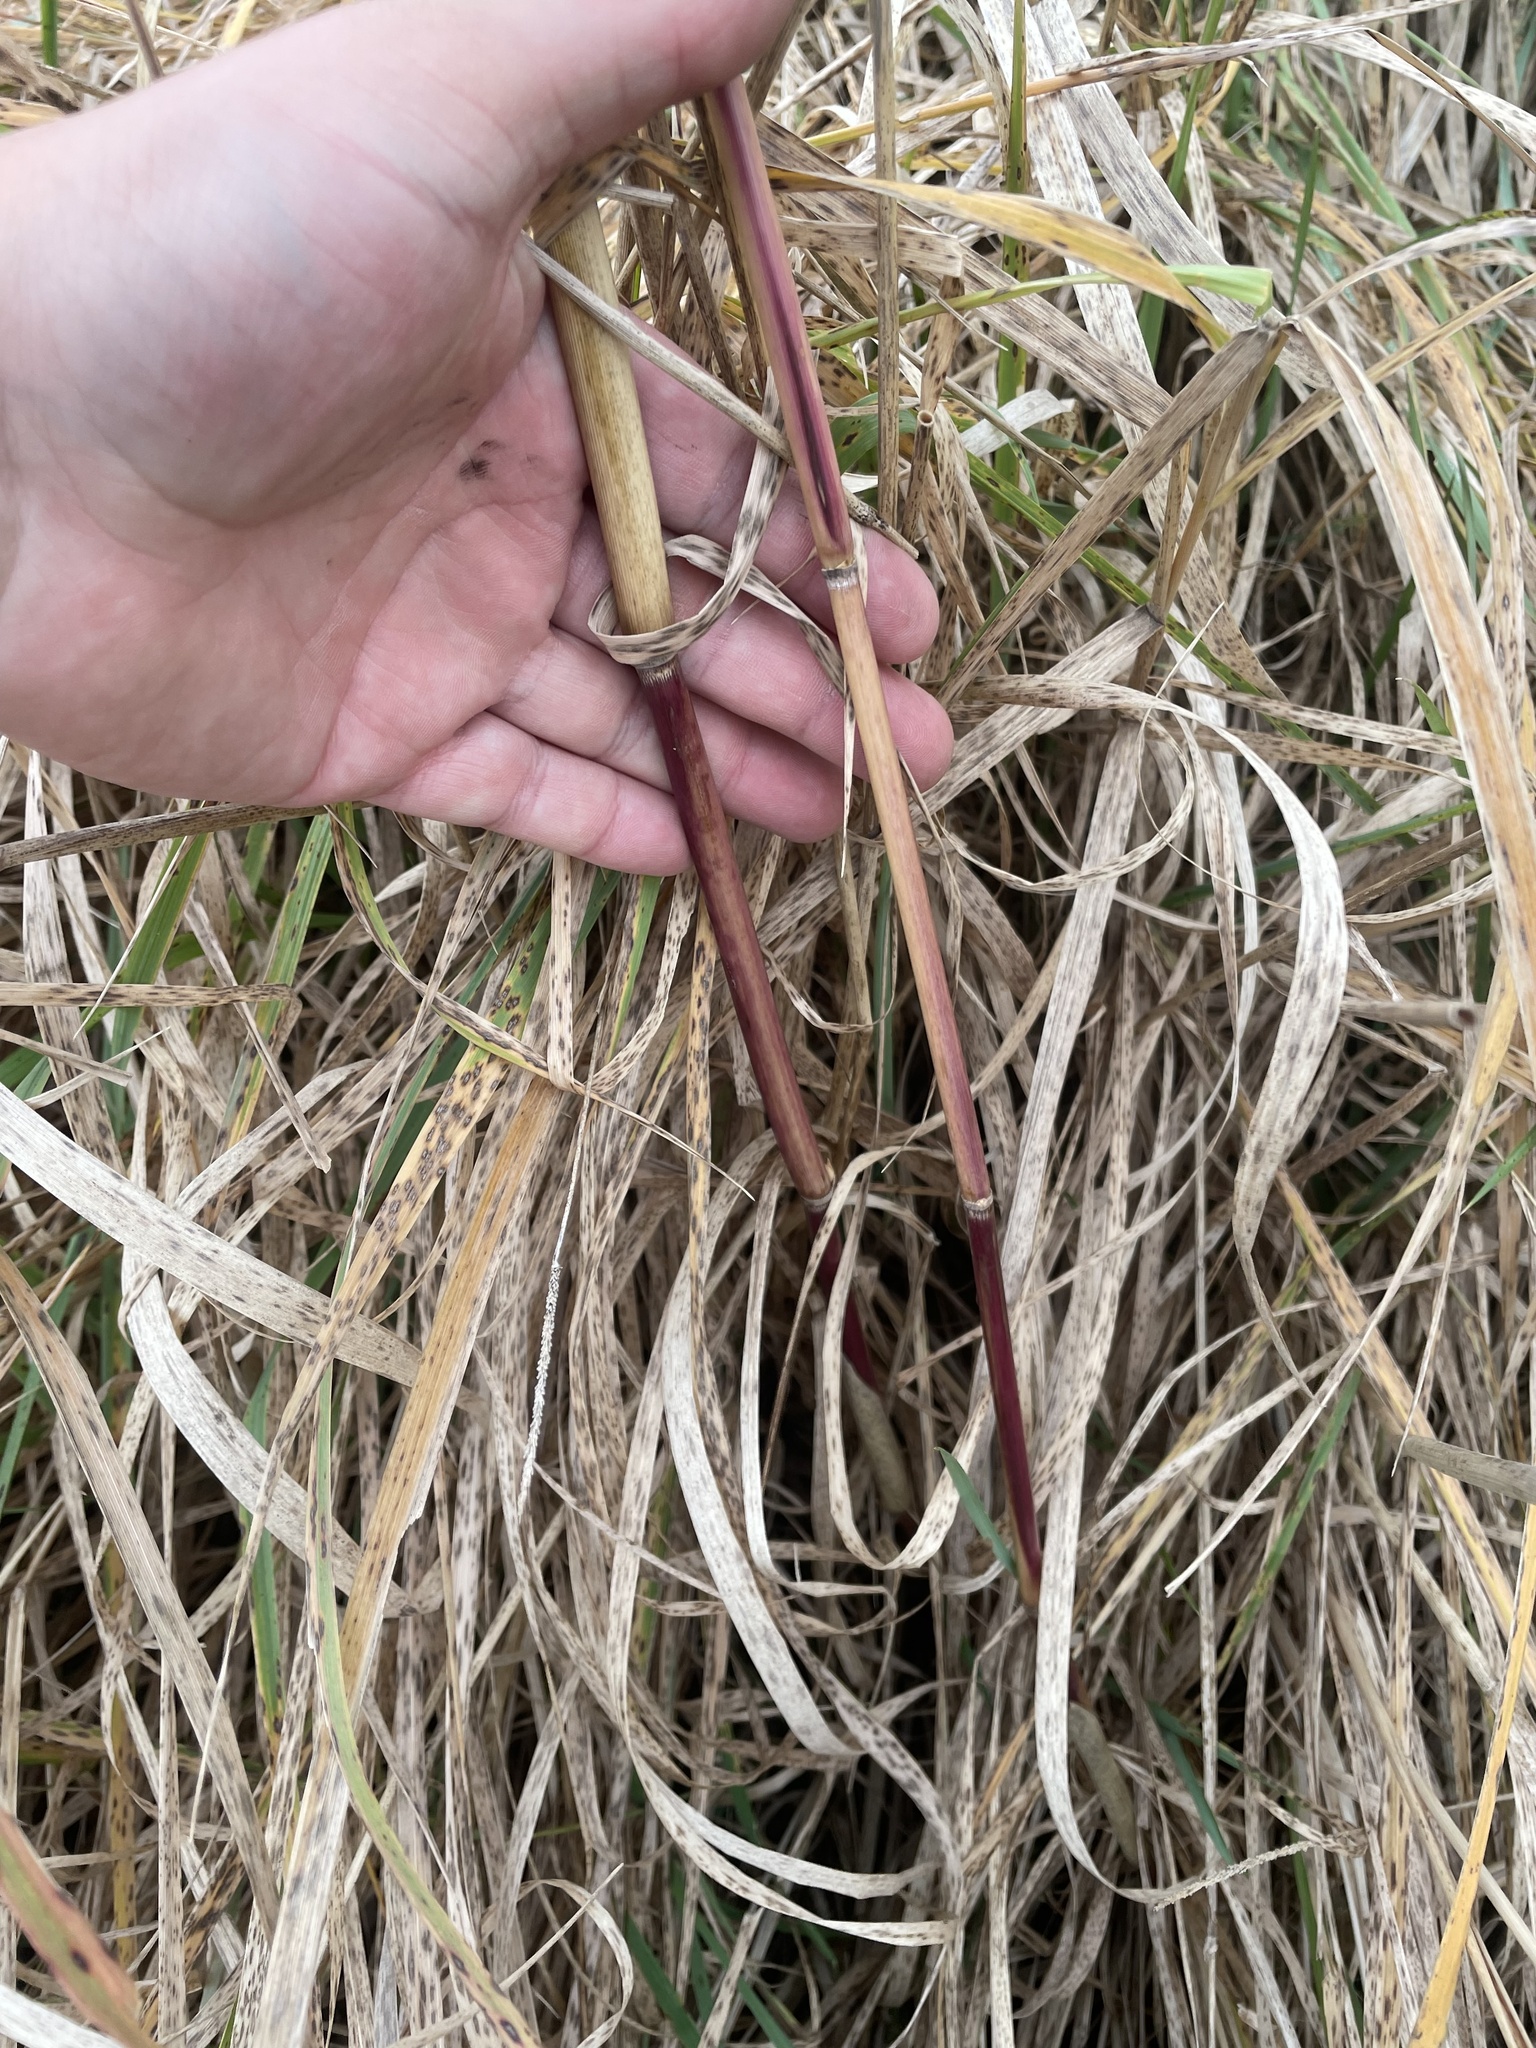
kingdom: Plantae
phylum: Tracheophyta
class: Liliopsida
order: Poales
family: Poaceae
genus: Phragmites
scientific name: Phragmites australis
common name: Common reed
